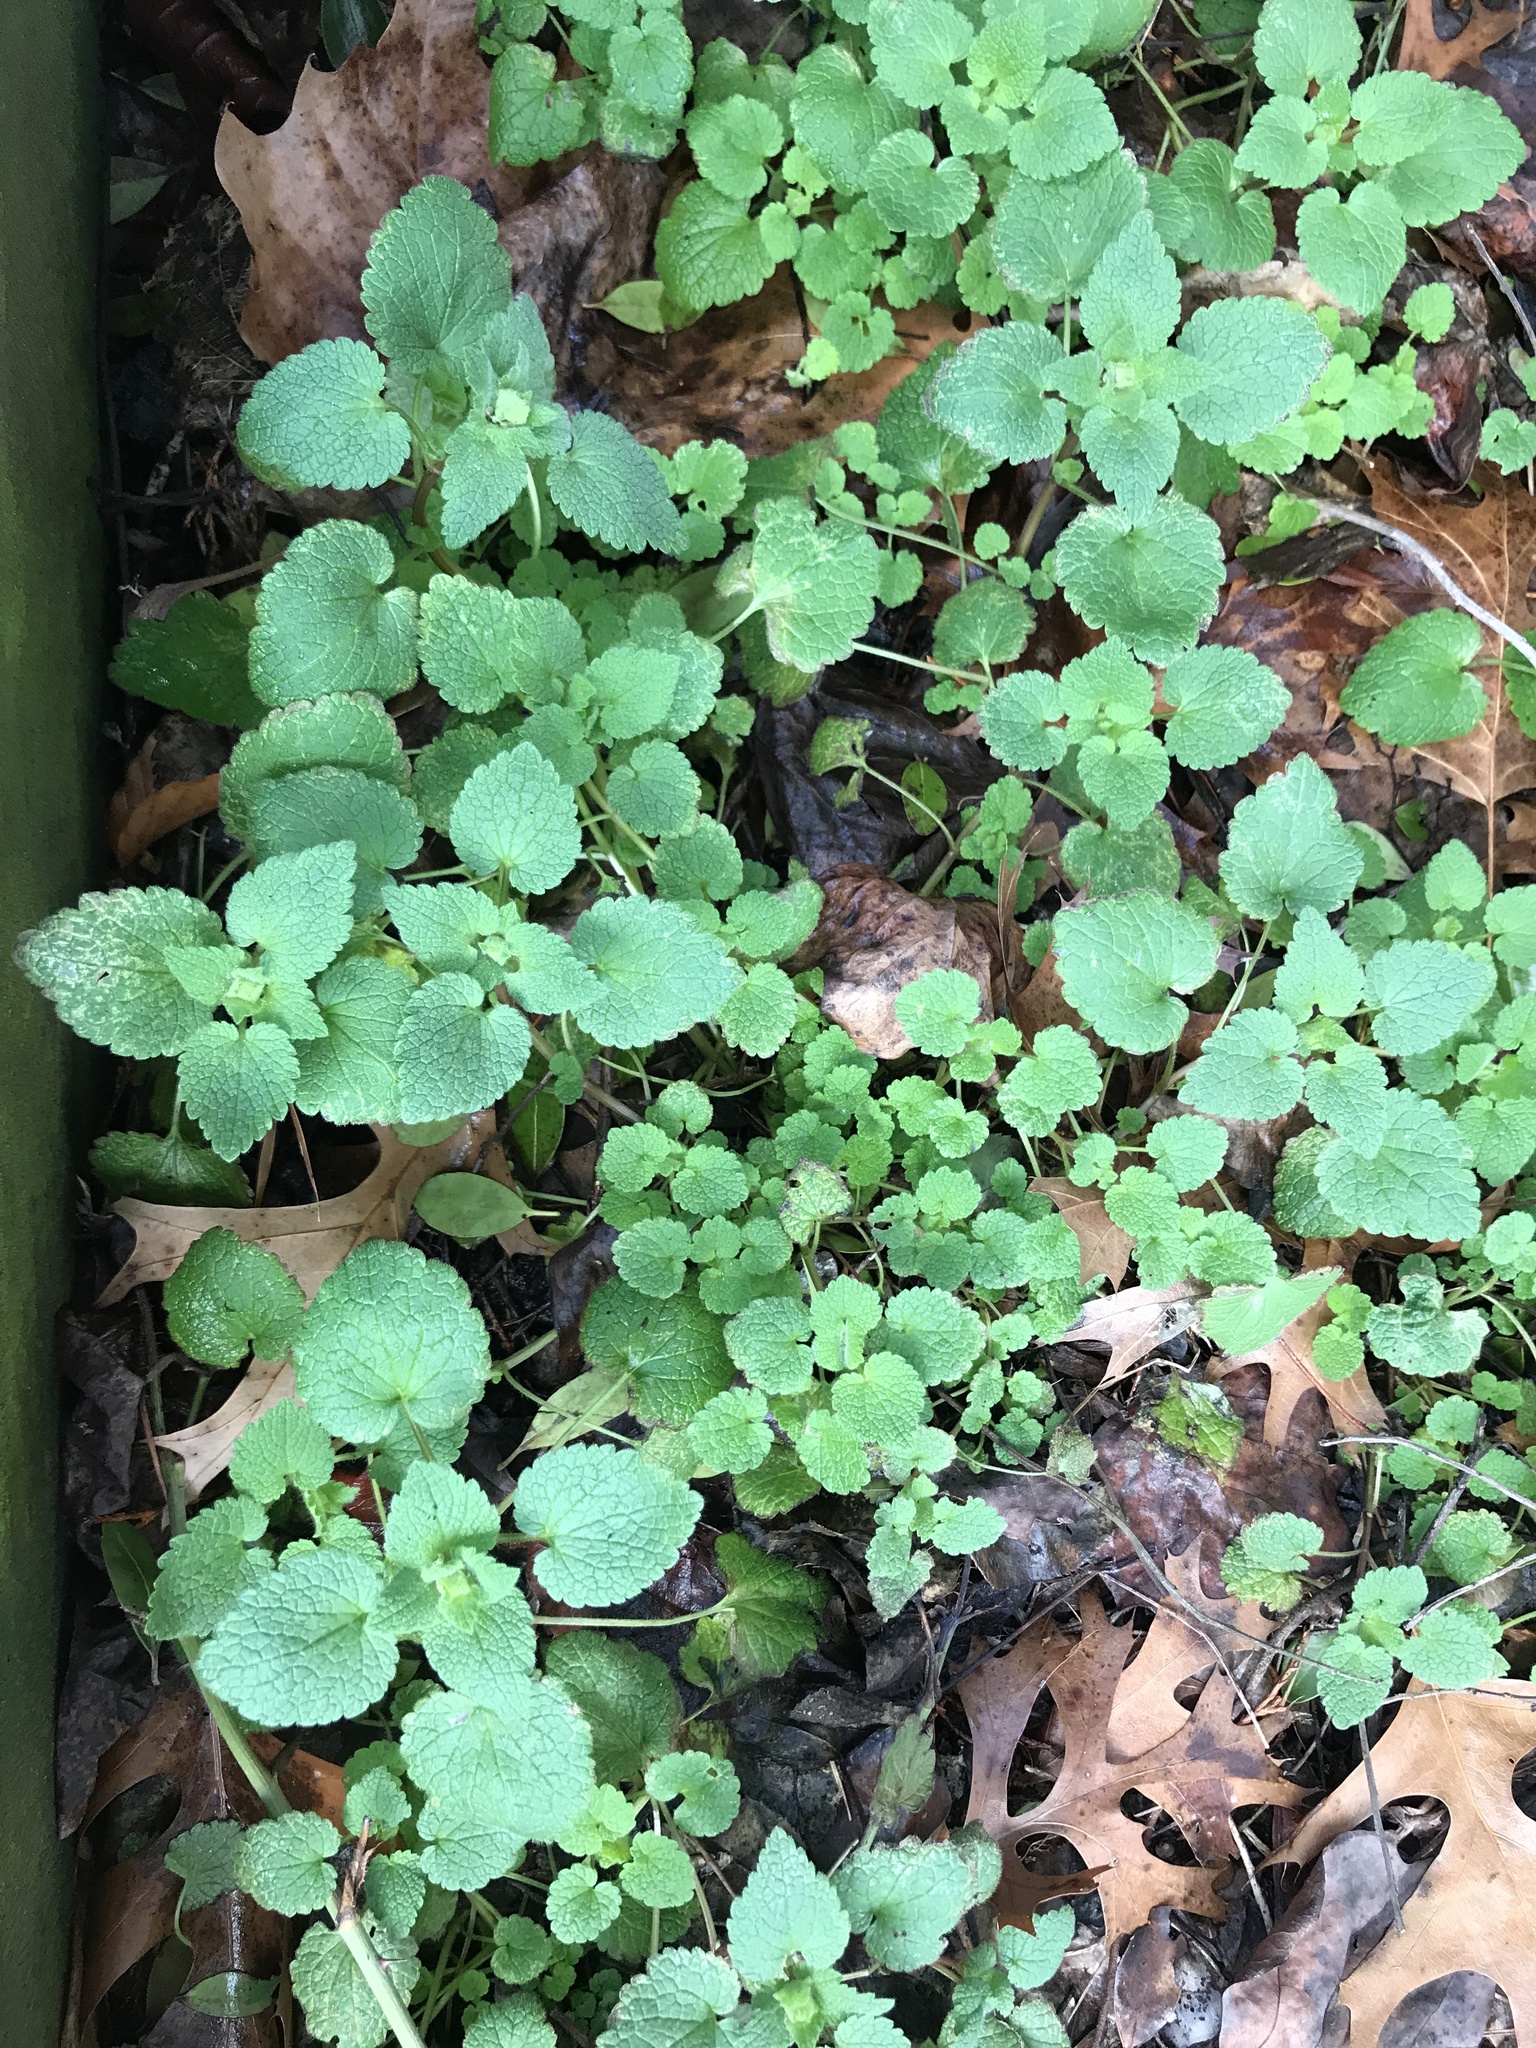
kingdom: Plantae
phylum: Tracheophyta
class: Magnoliopsida
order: Lamiales
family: Lamiaceae
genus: Lamium
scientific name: Lamium purpureum
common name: Red dead-nettle
